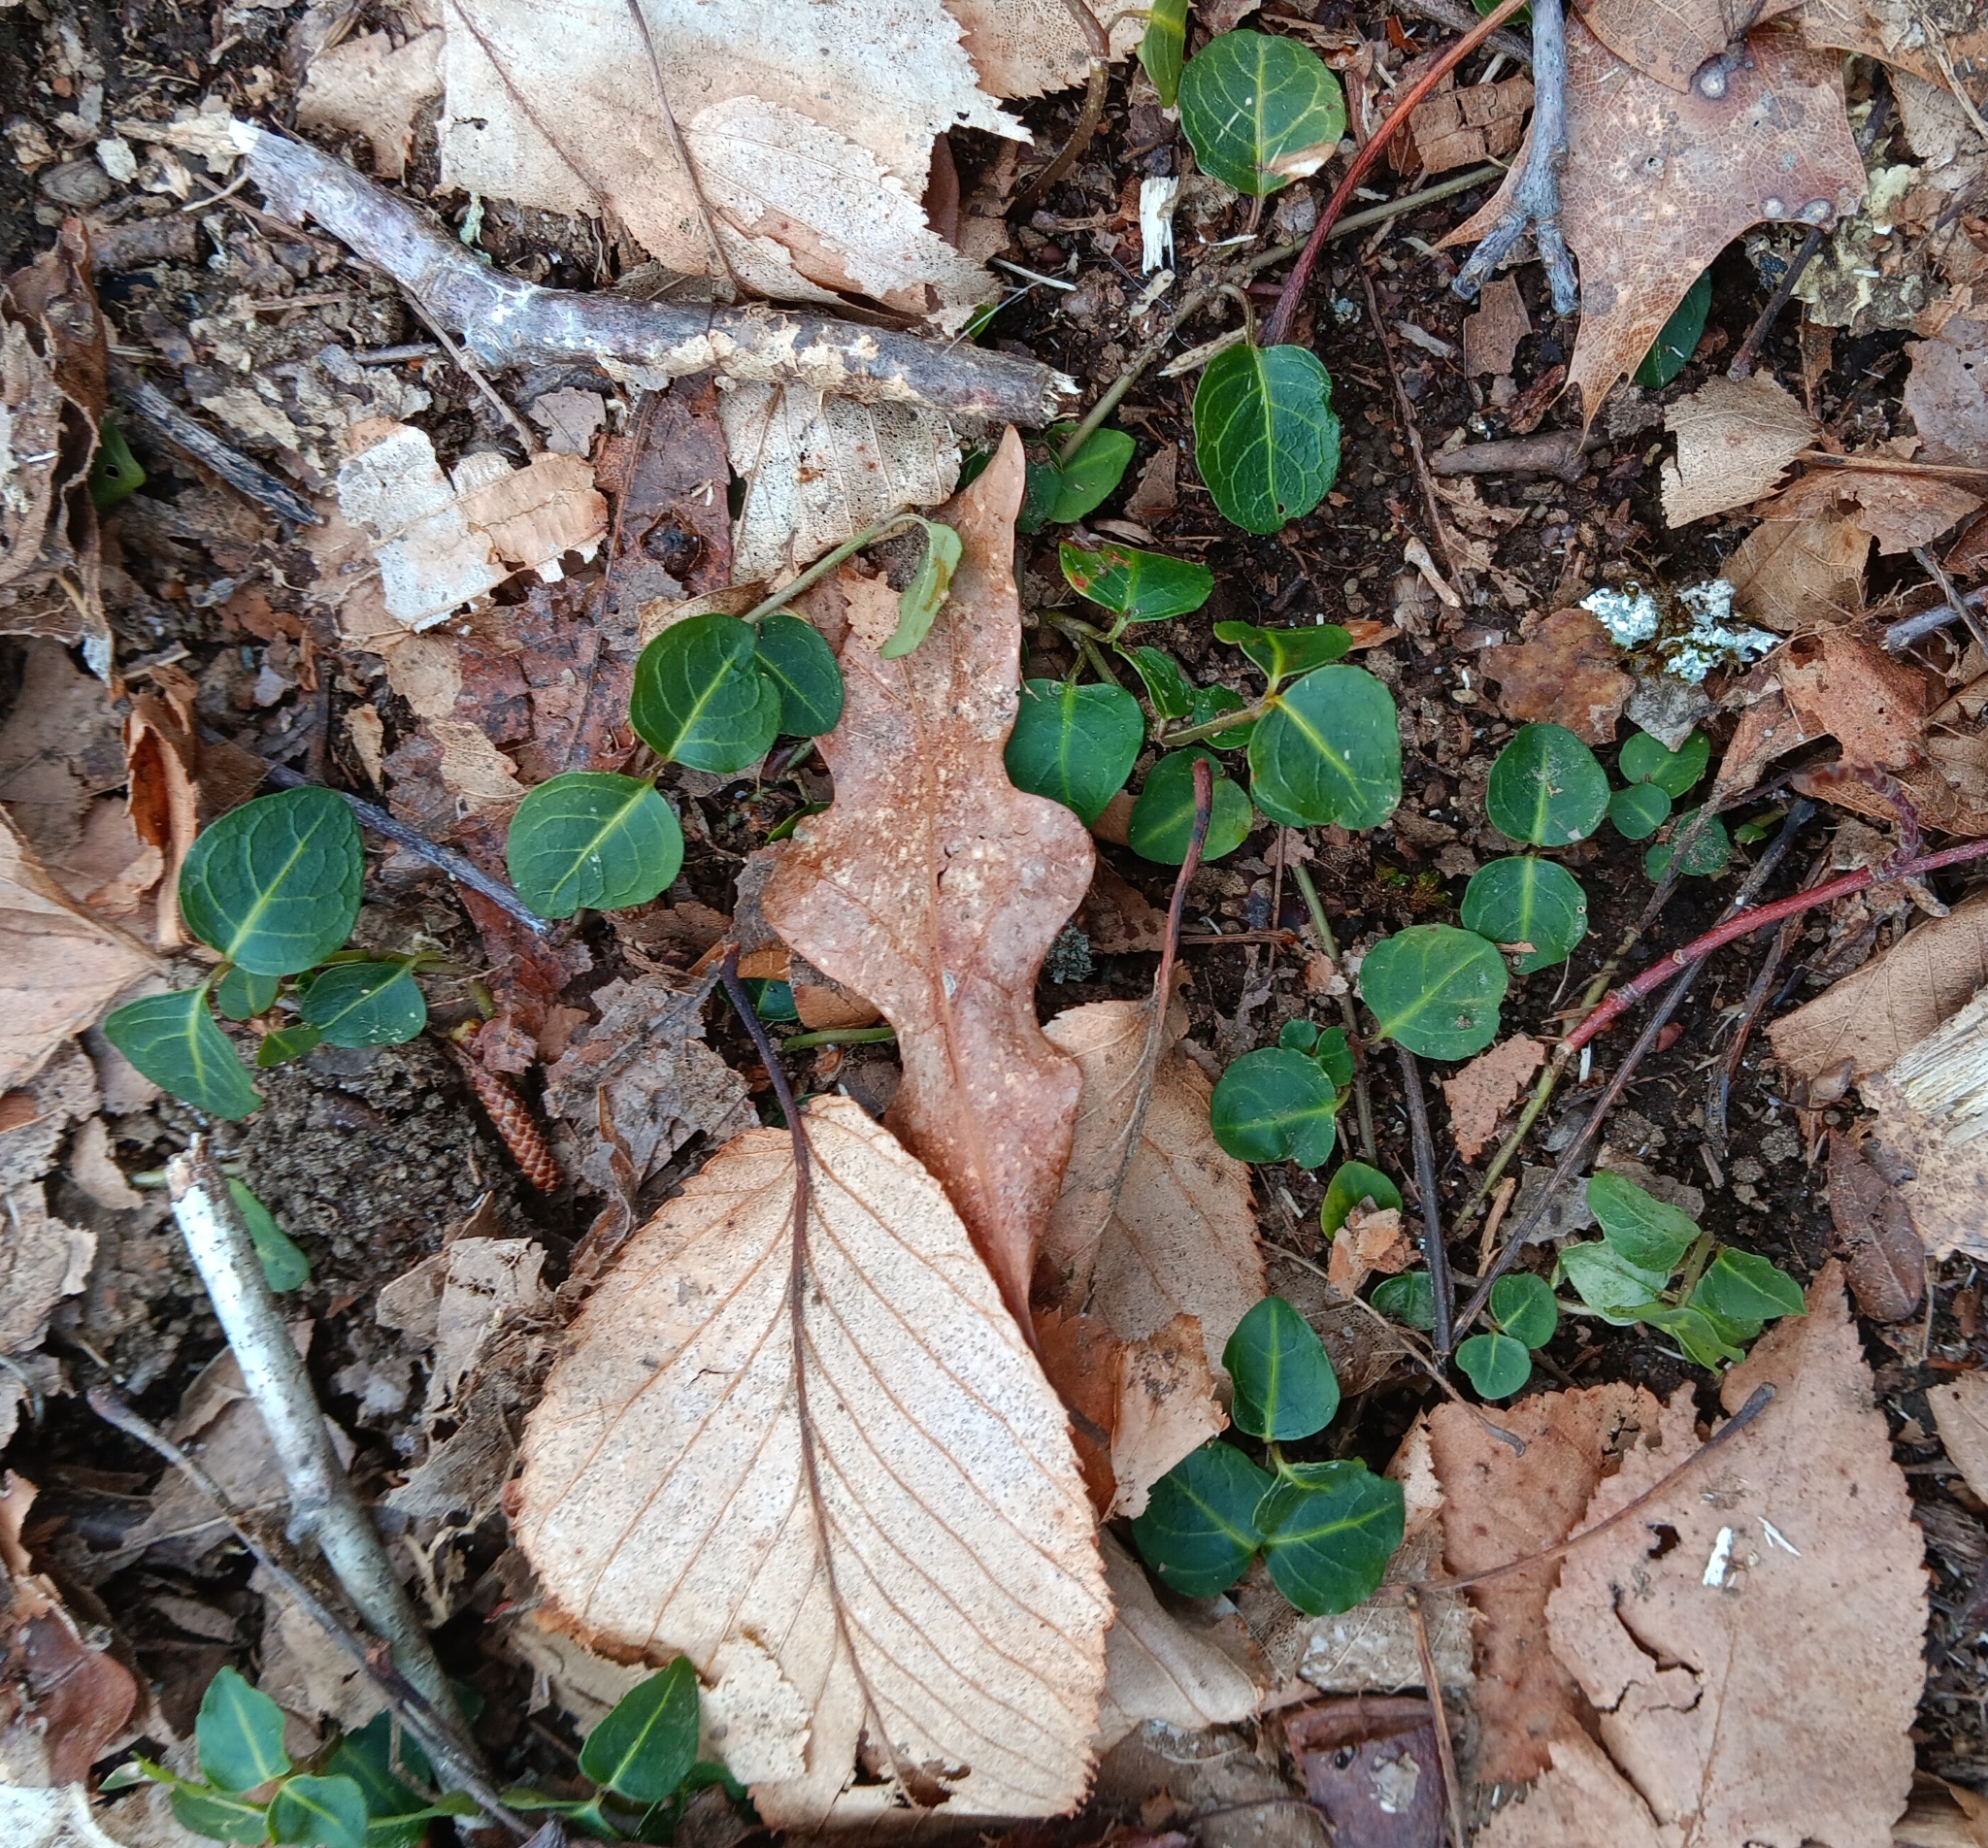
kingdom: Plantae
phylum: Tracheophyta
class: Magnoliopsida
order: Gentianales
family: Rubiaceae
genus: Mitchella
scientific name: Mitchella repens
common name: Partridge-berry
